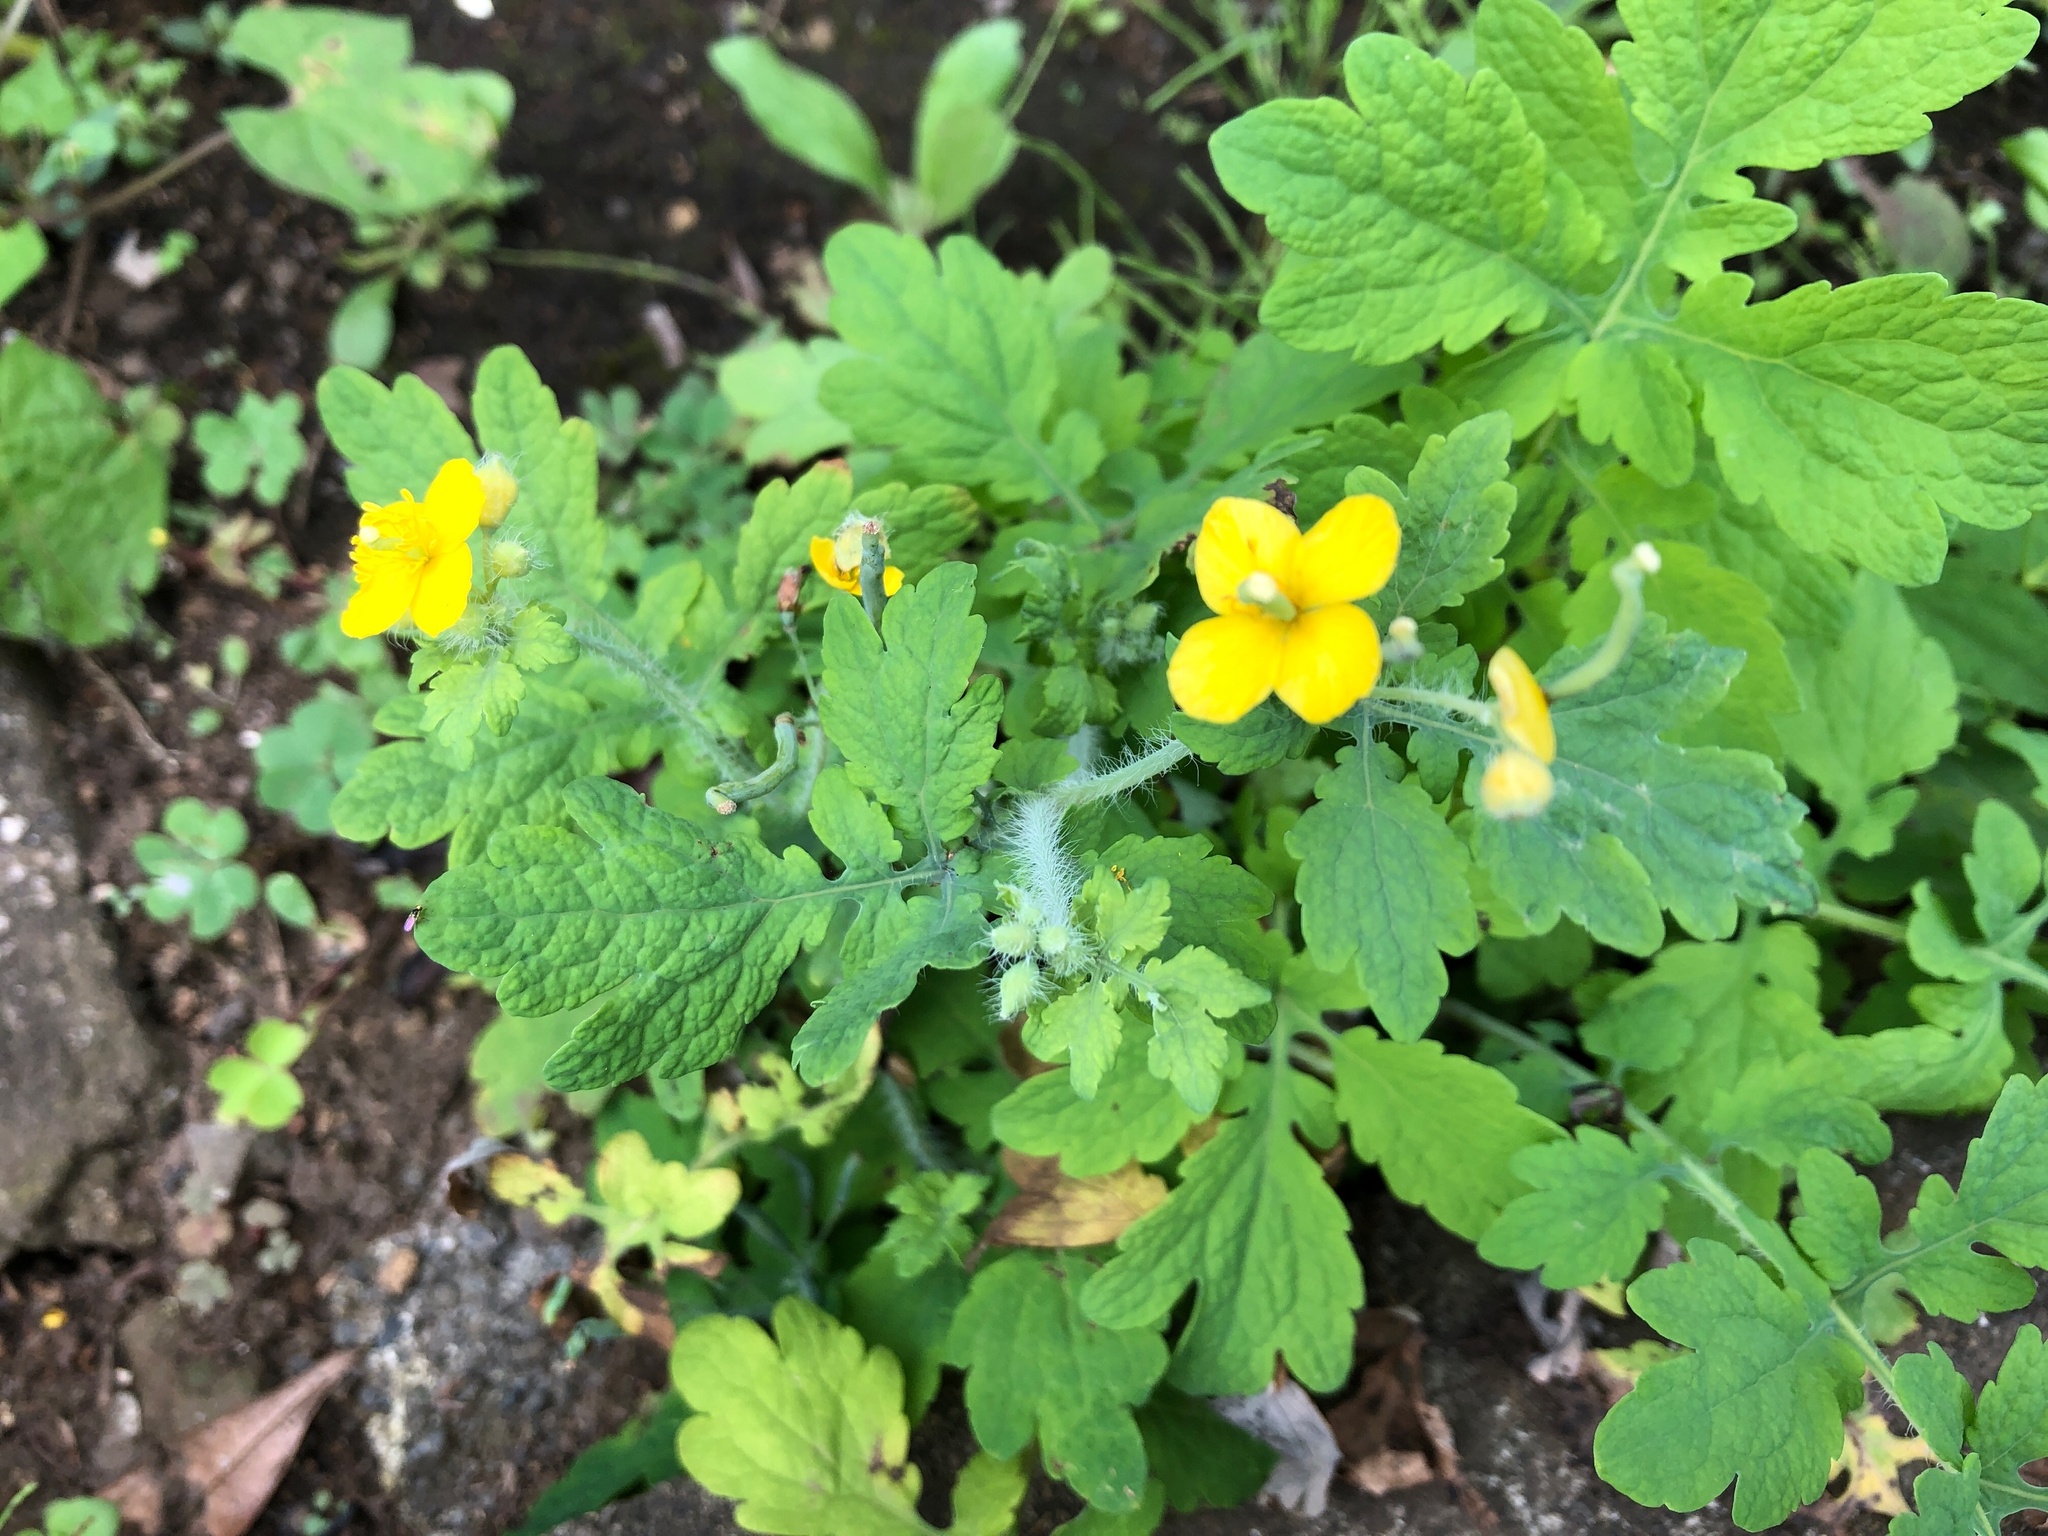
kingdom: Plantae
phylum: Tracheophyta
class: Magnoliopsida
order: Ranunculales
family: Papaveraceae
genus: Chelidonium
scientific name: Chelidonium majus
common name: Greater celandine
